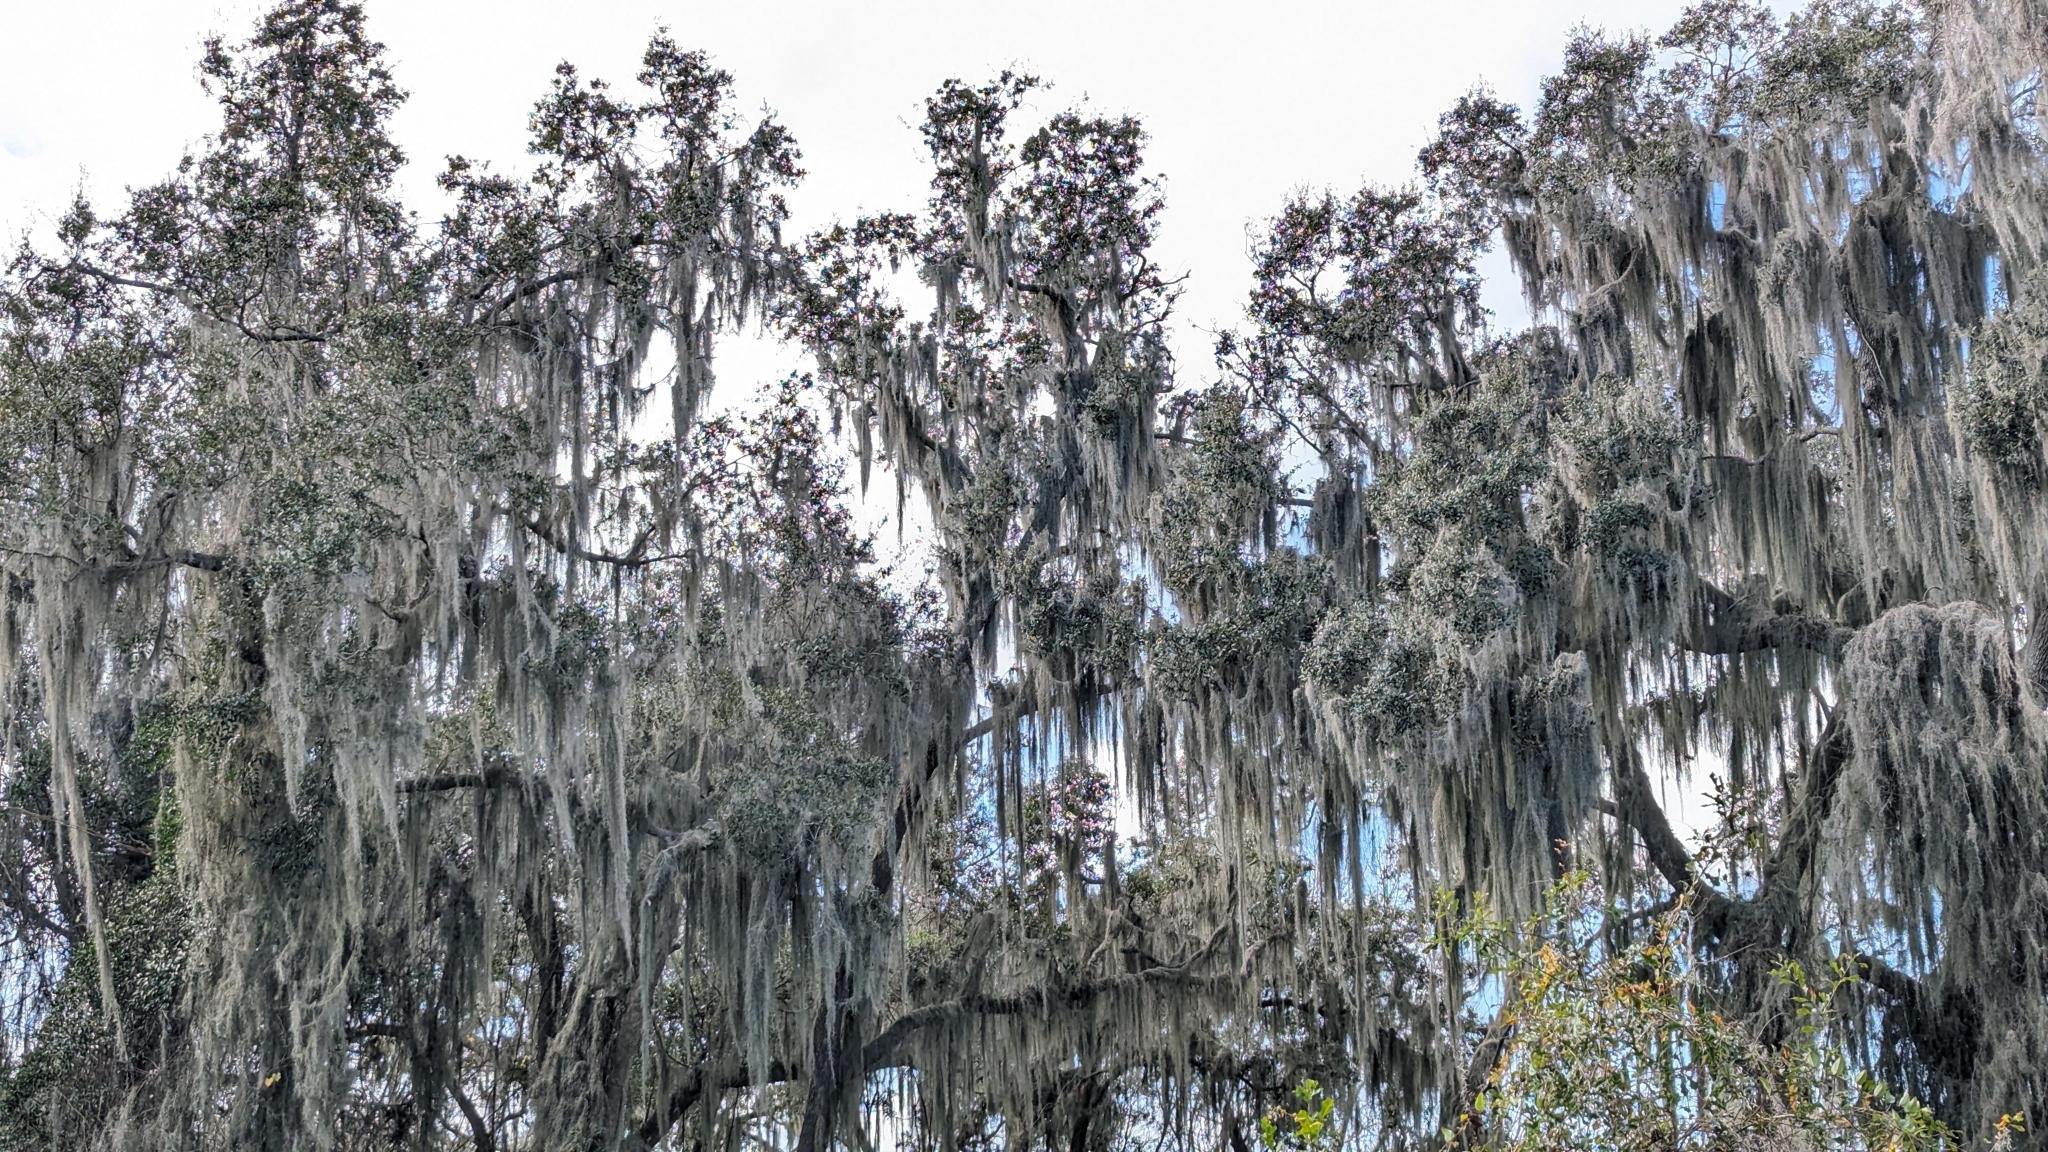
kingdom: Plantae
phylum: Tracheophyta
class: Liliopsida
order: Poales
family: Bromeliaceae
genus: Tillandsia
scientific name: Tillandsia usneoides
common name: Spanish moss
